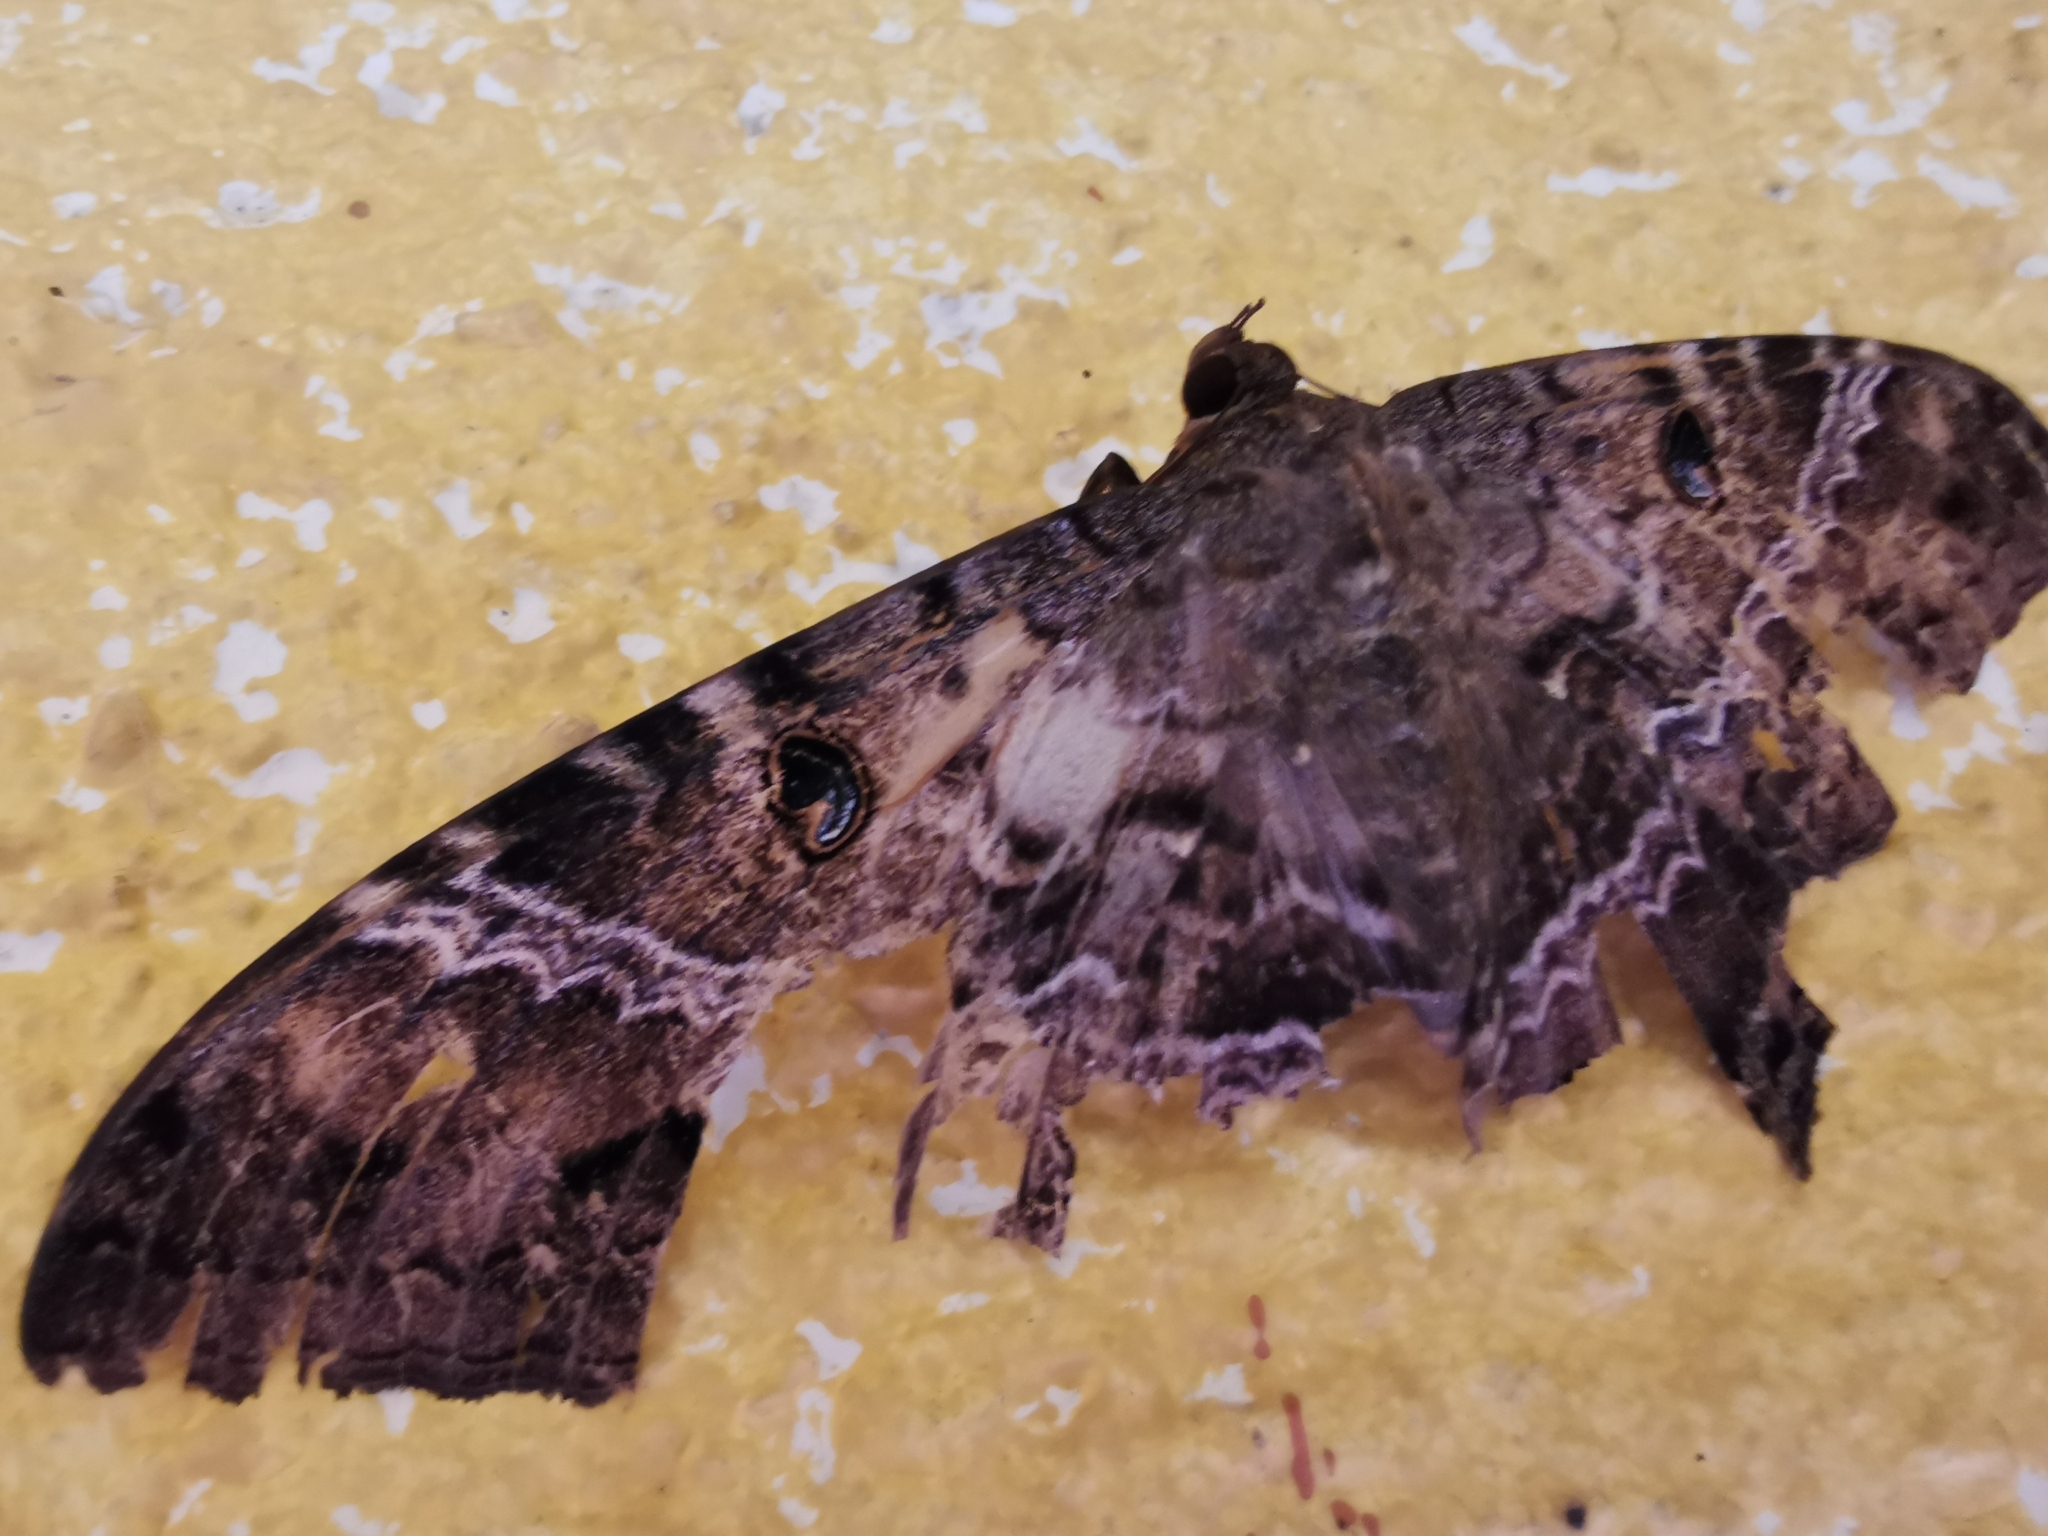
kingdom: Animalia
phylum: Arthropoda
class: Insecta
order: Lepidoptera
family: Erebidae
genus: Ascalapha
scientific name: Ascalapha odorata
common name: Black witch
